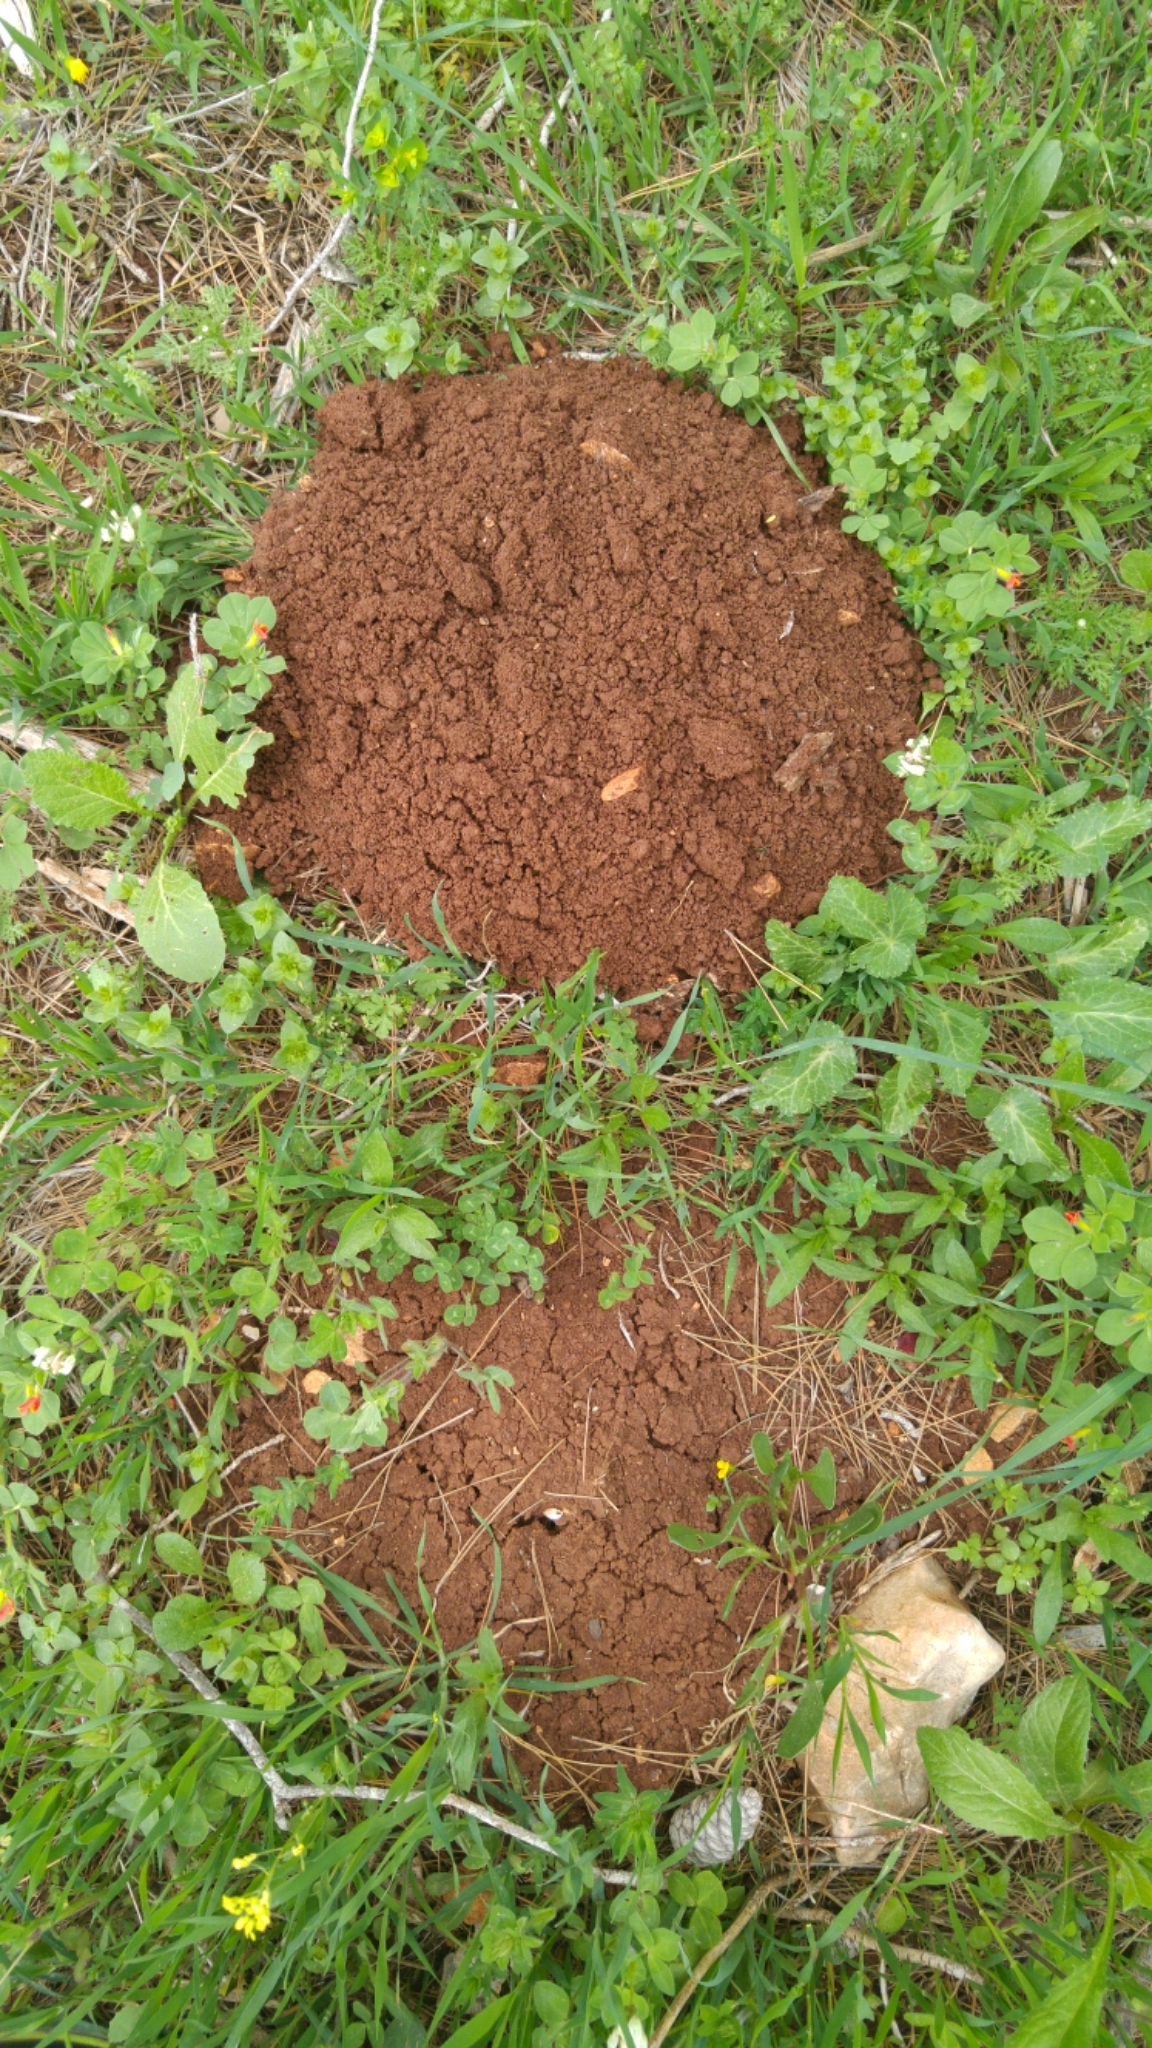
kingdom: Animalia
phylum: Chordata
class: Mammalia
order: Rodentia
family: Spalacidae
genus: Spalax
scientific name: Spalax ehrenbergi
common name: Middle east blind mole rat
